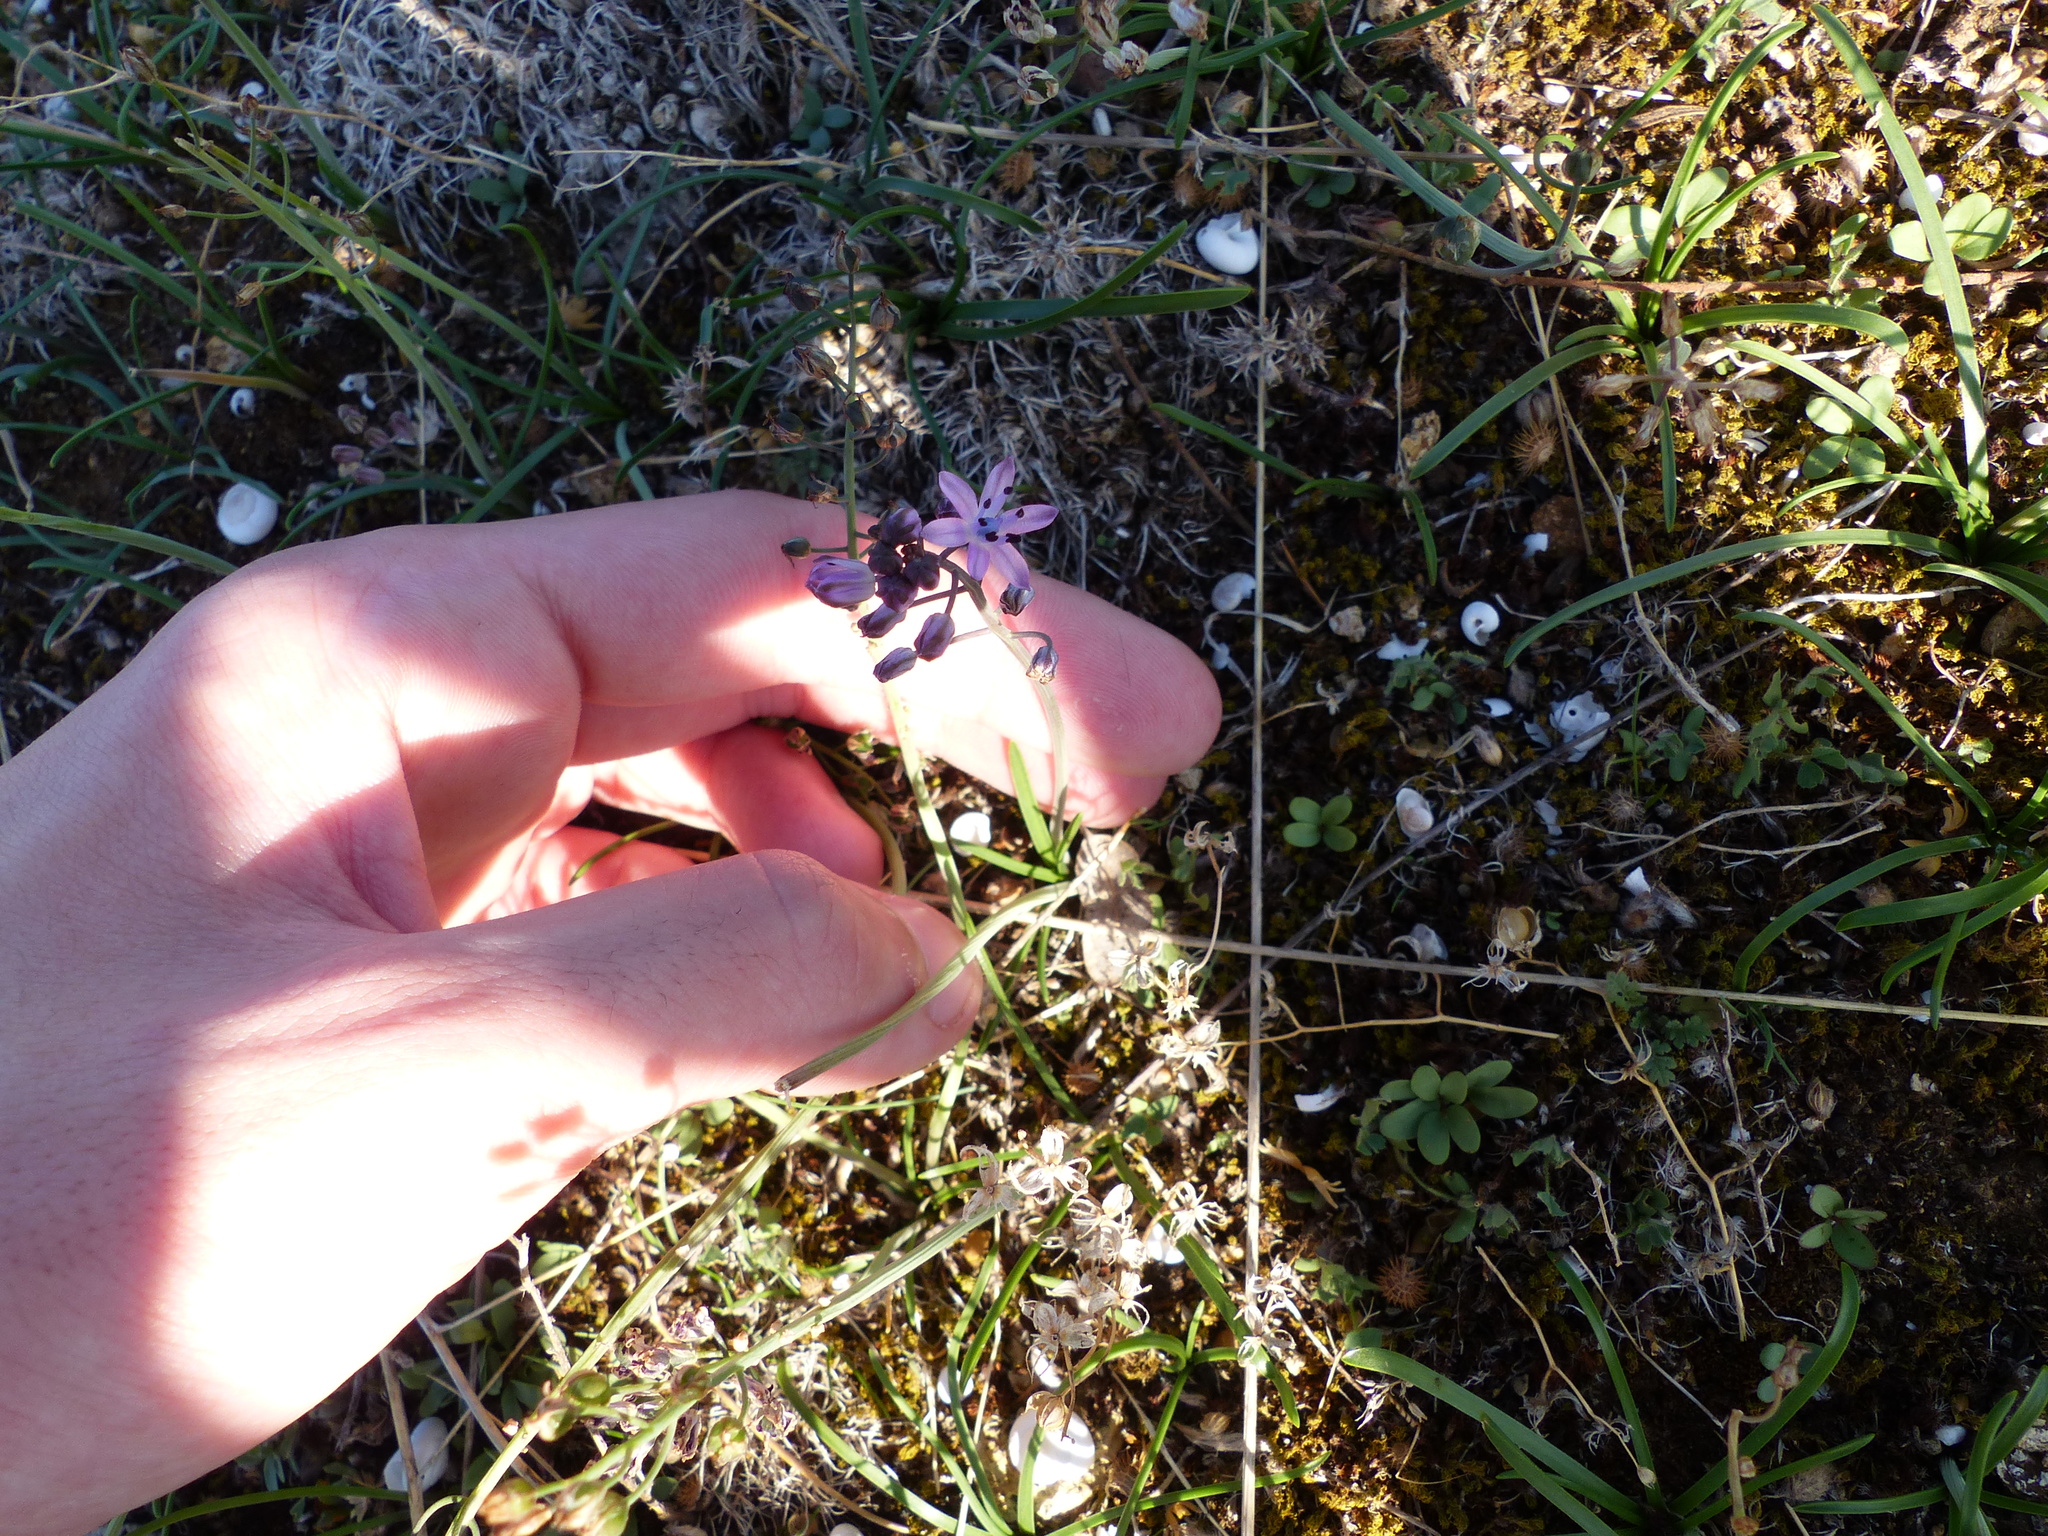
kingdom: Plantae
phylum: Tracheophyta
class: Liliopsida
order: Asparagales
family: Asparagaceae
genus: Prospero
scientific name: Prospero autumnale
